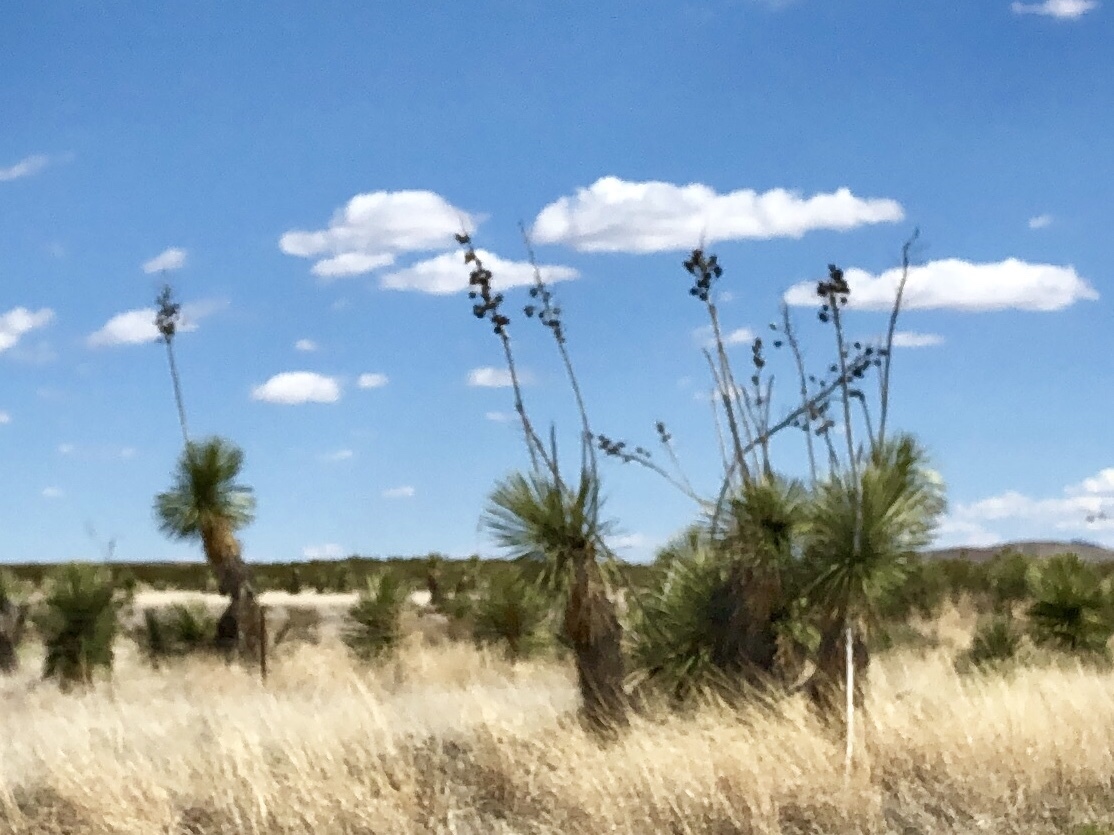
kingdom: Plantae
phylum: Tracheophyta
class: Liliopsida
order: Asparagales
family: Asparagaceae
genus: Yucca
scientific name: Yucca elata
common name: Palmella
